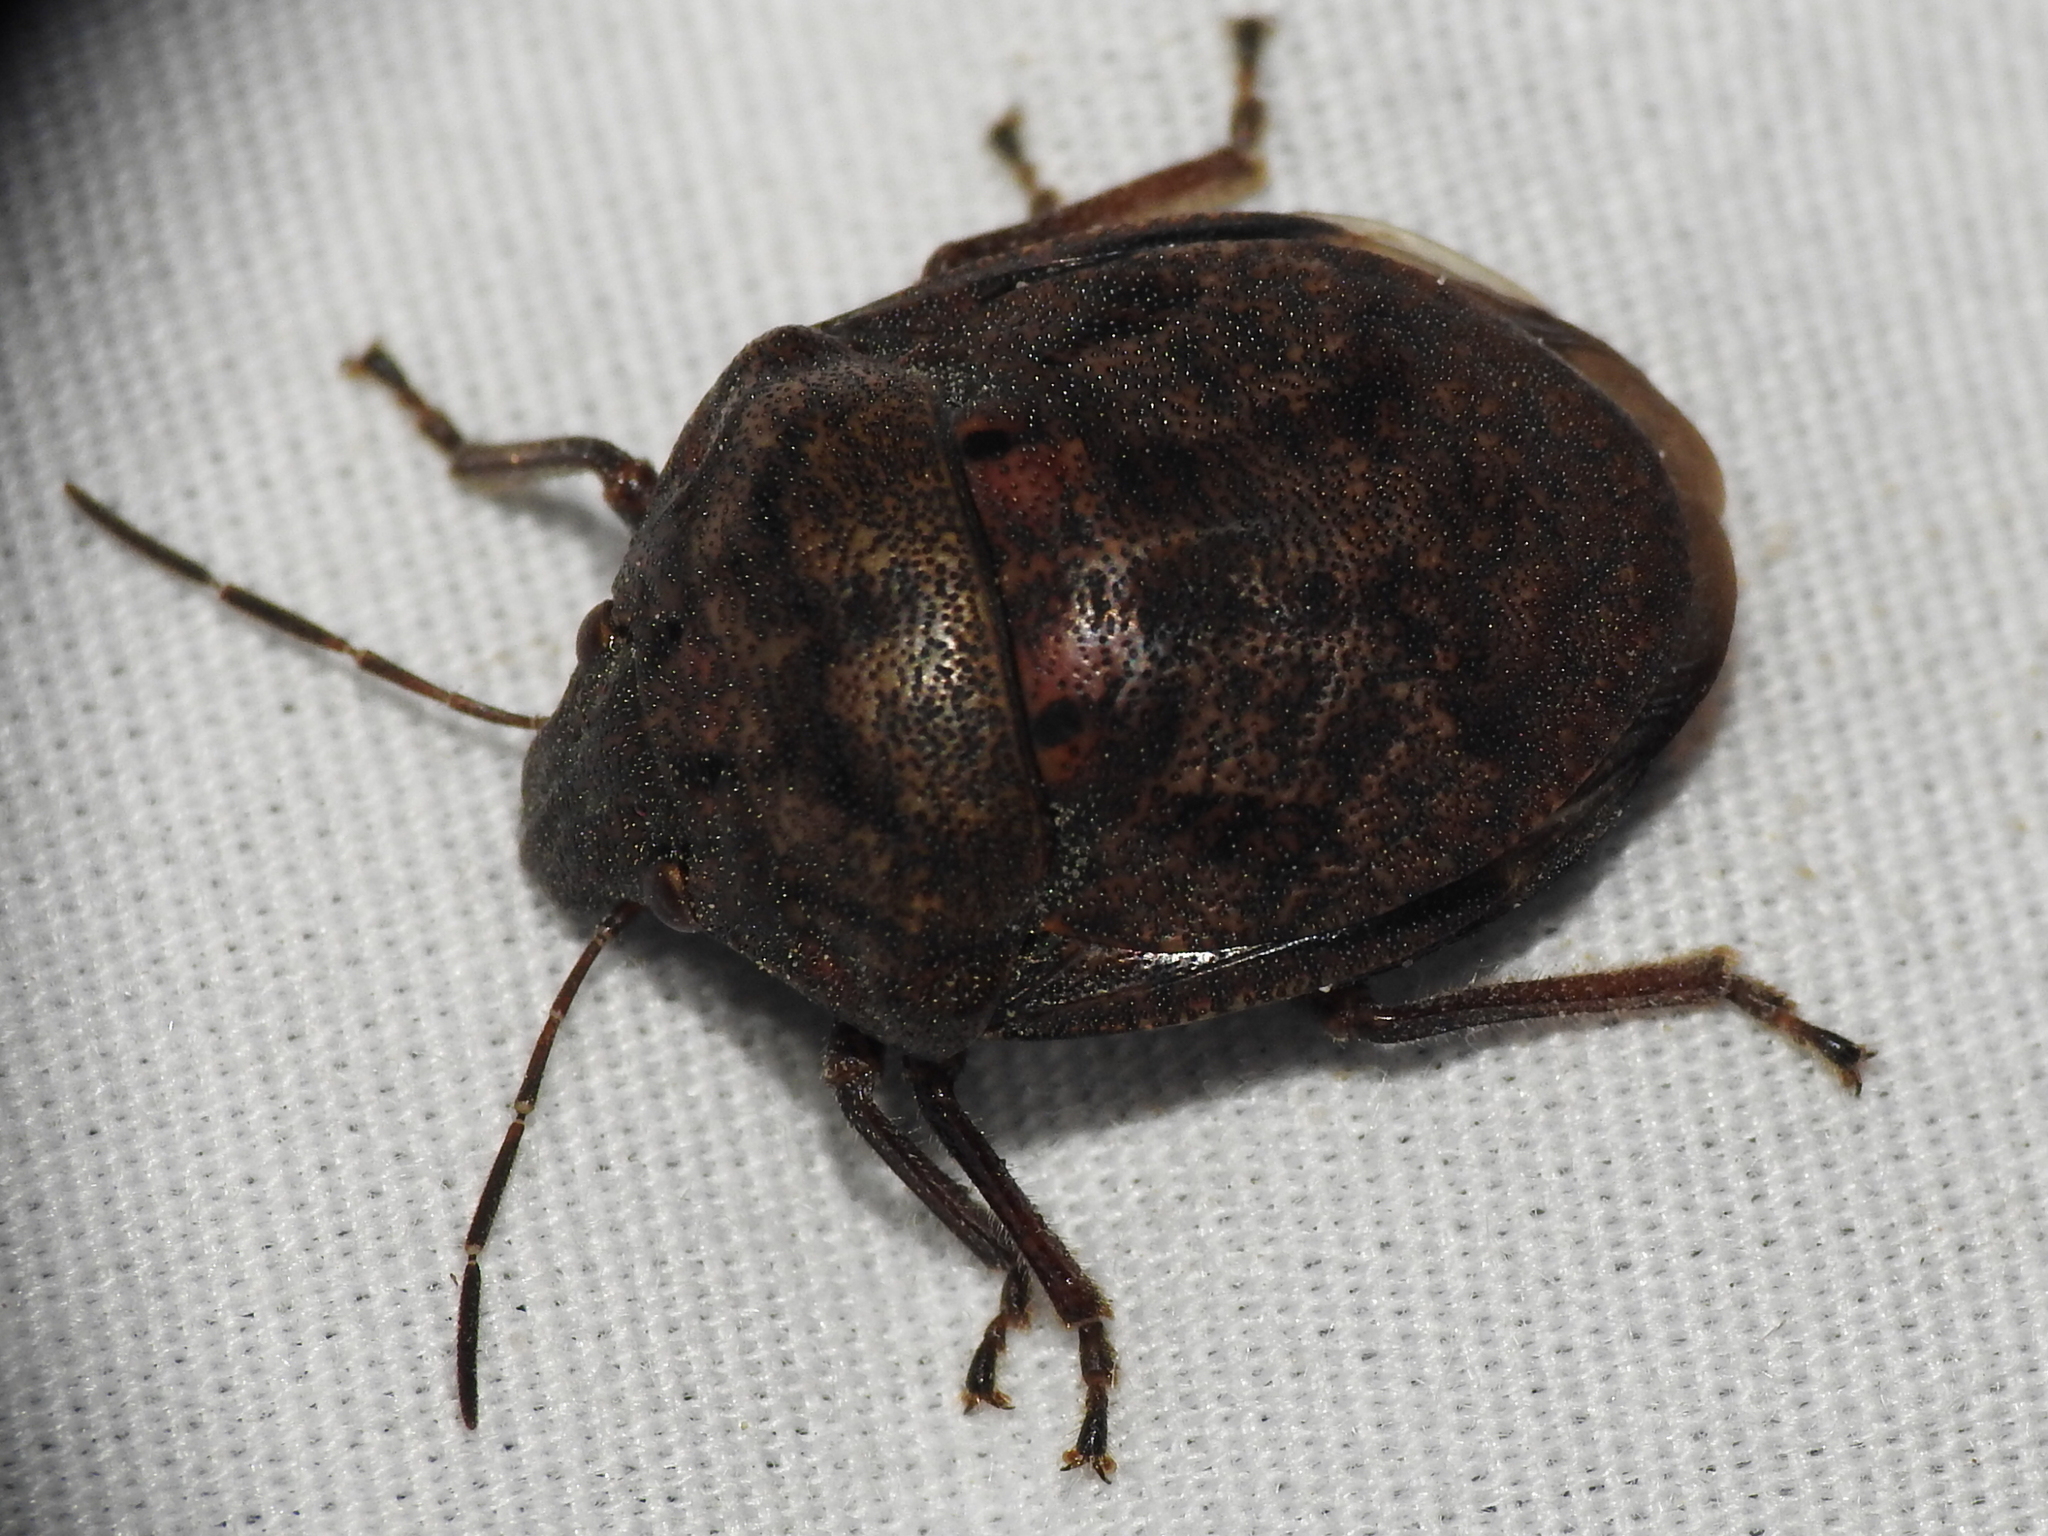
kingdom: Animalia
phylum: Arthropoda
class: Insecta
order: Hemiptera
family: Scutelleridae
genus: Tetyra
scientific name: Tetyra bipunctata
